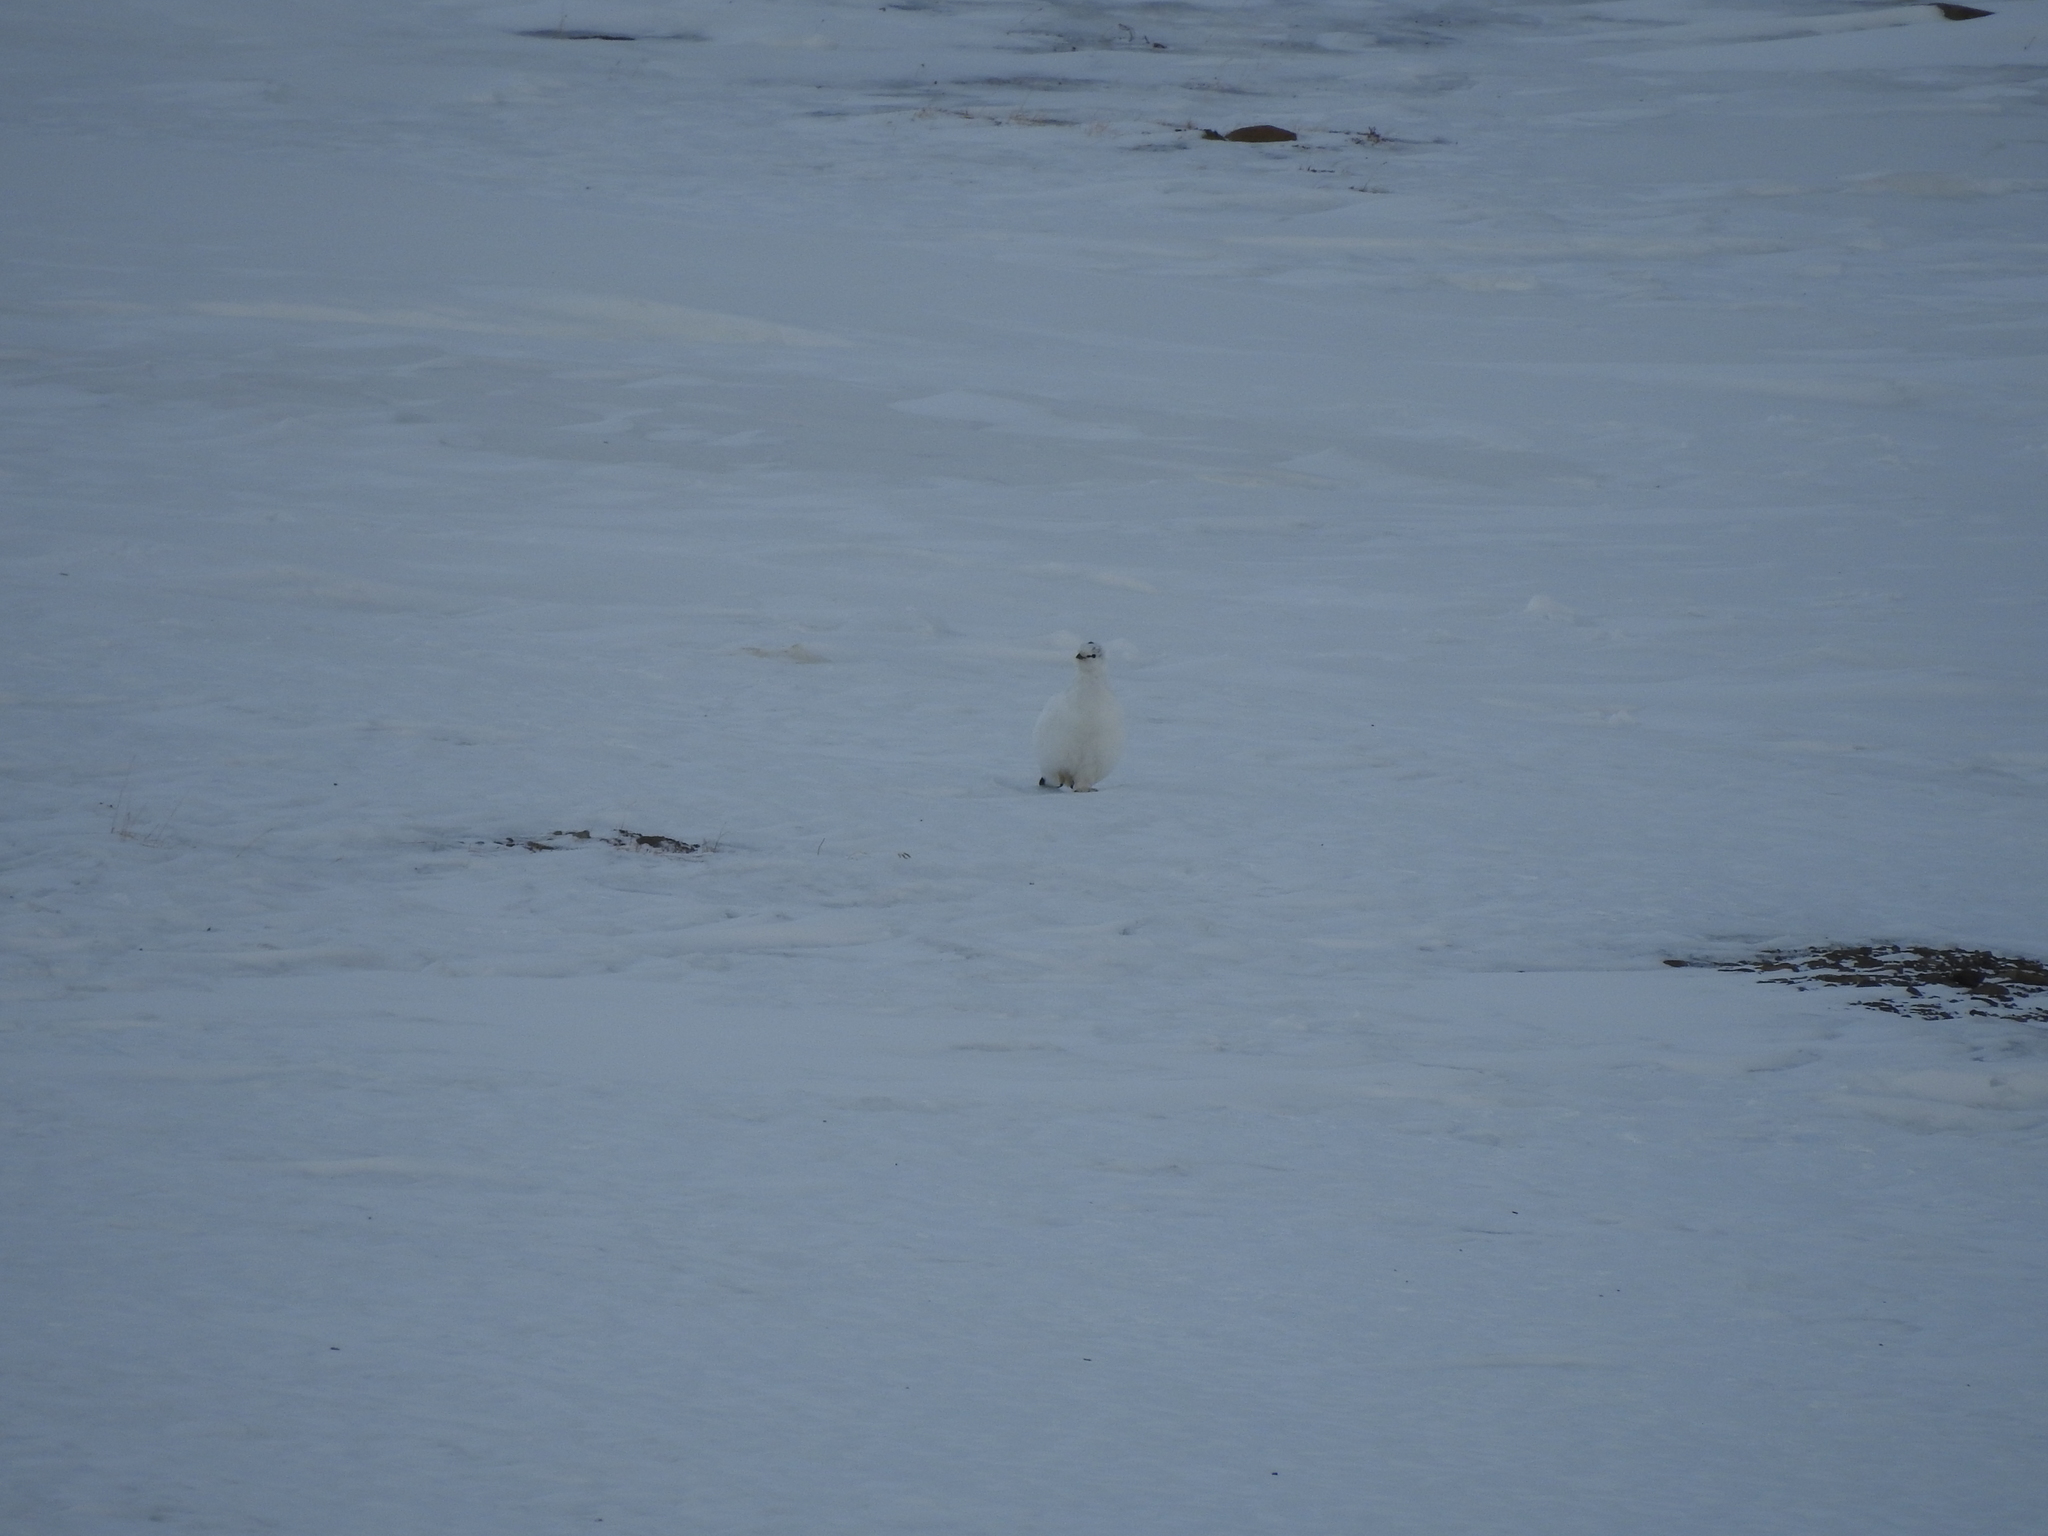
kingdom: Animalia
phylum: Chordata
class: Aves
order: Galliformes
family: Phasianidae
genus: Lagopus
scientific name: Lagopus muta
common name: Rock ptarmigan
